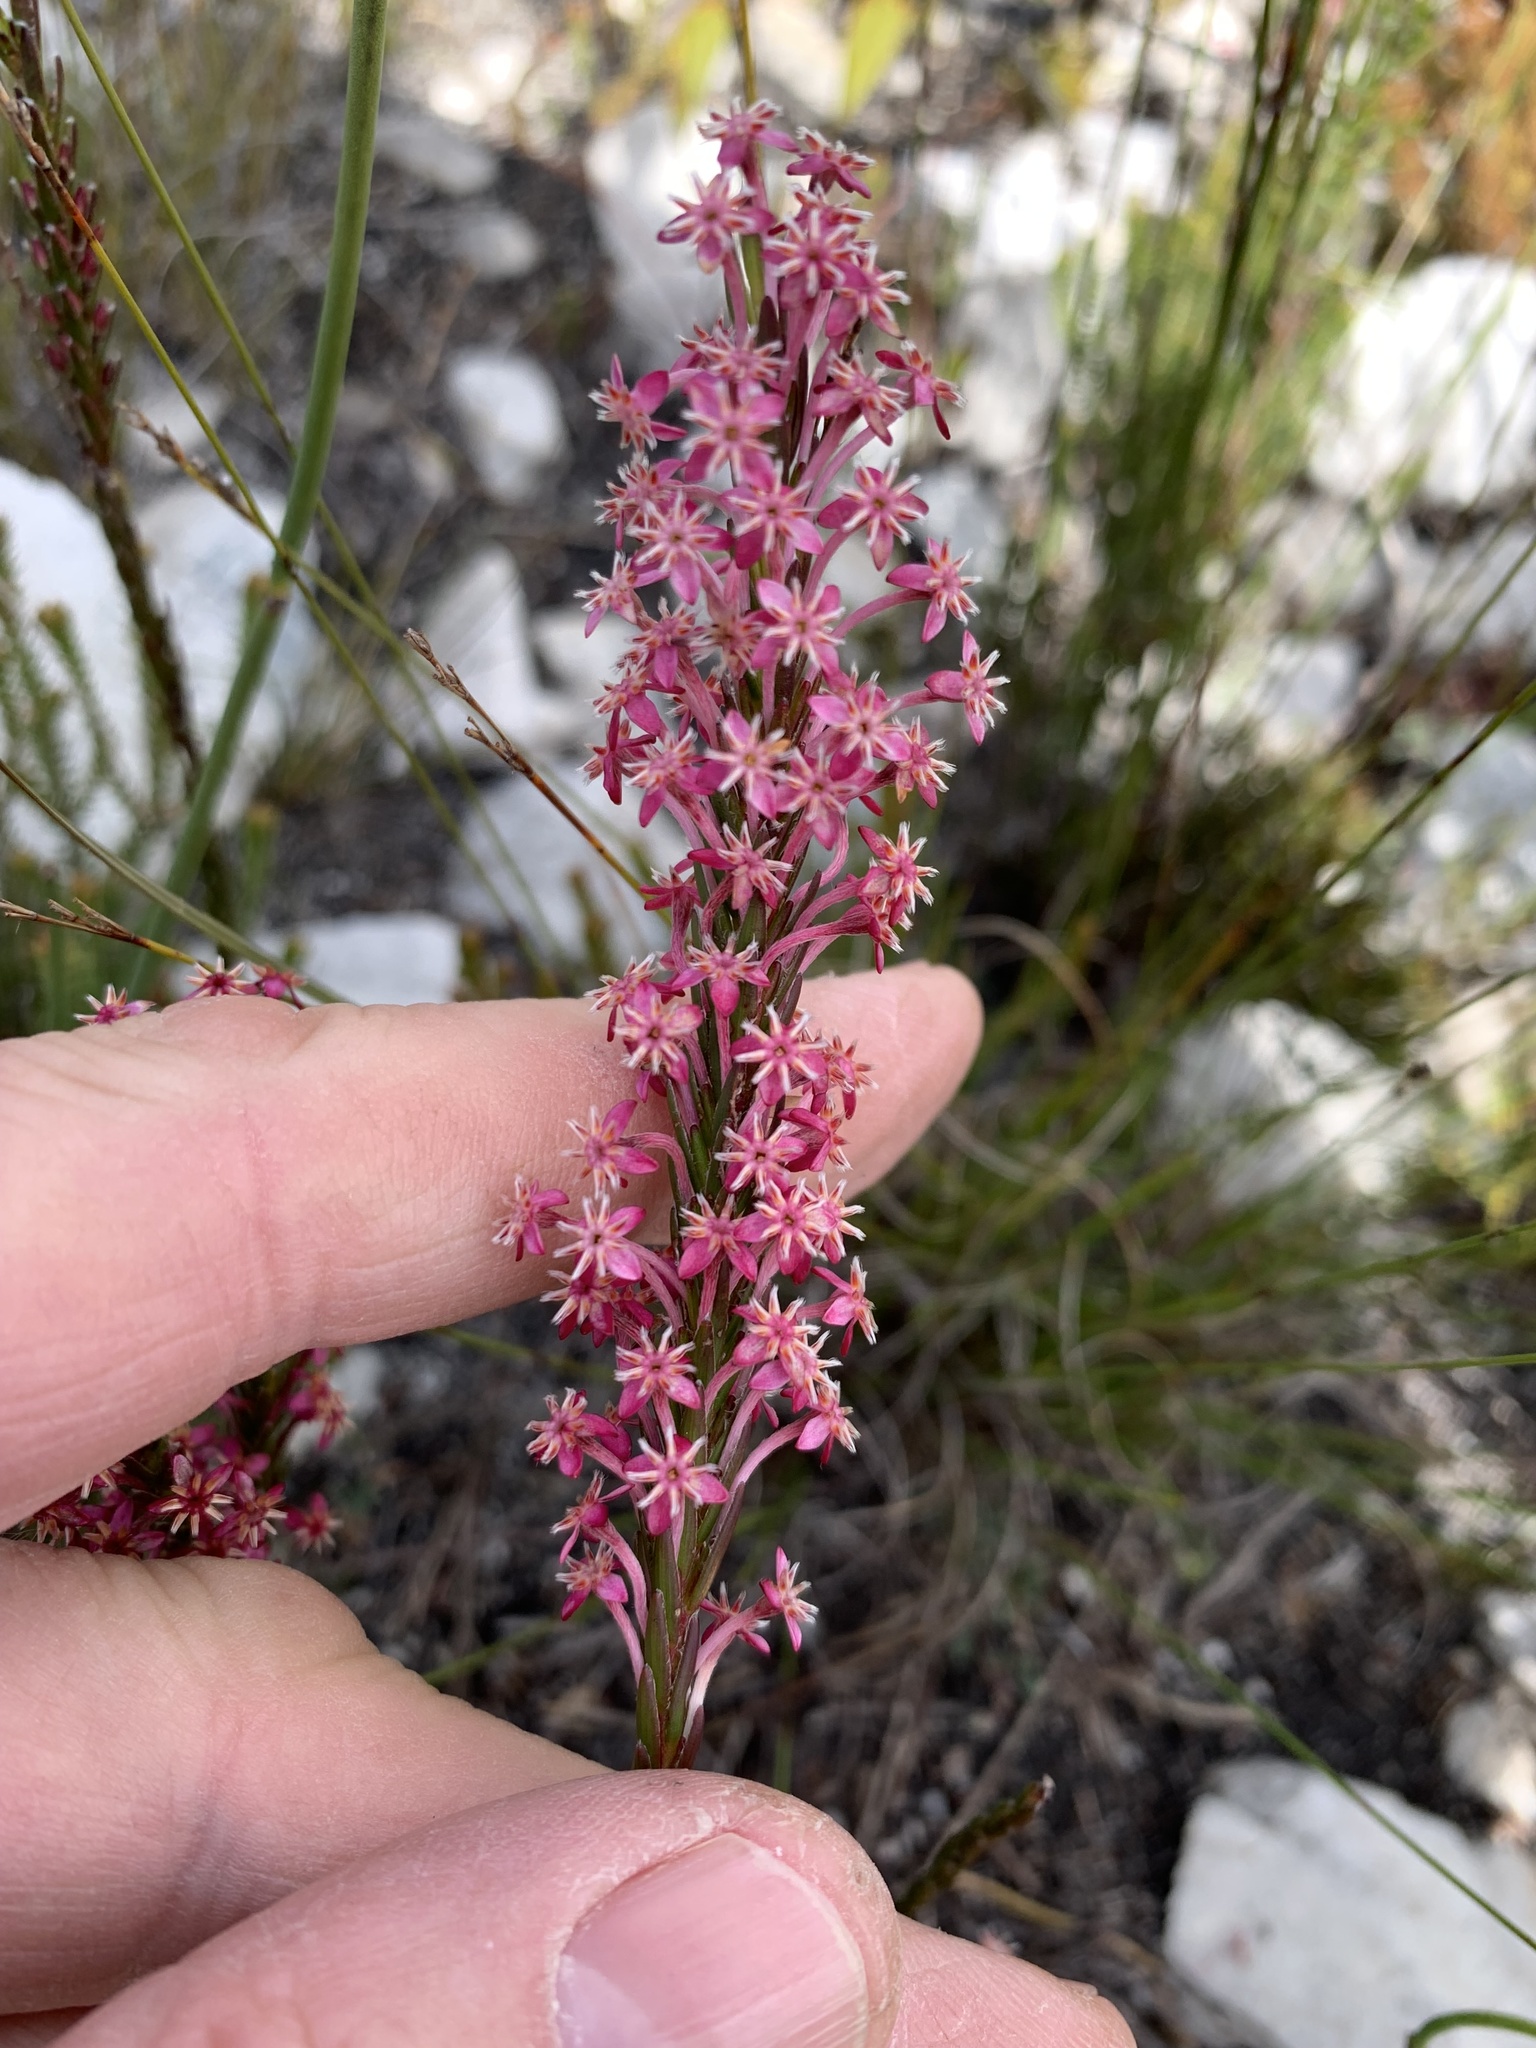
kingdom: Plantae
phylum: Tracheophyta
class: Magnoliopsida
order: Malvales
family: Thymelaeaceae
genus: Struthiola
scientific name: Struthiola ciliata
